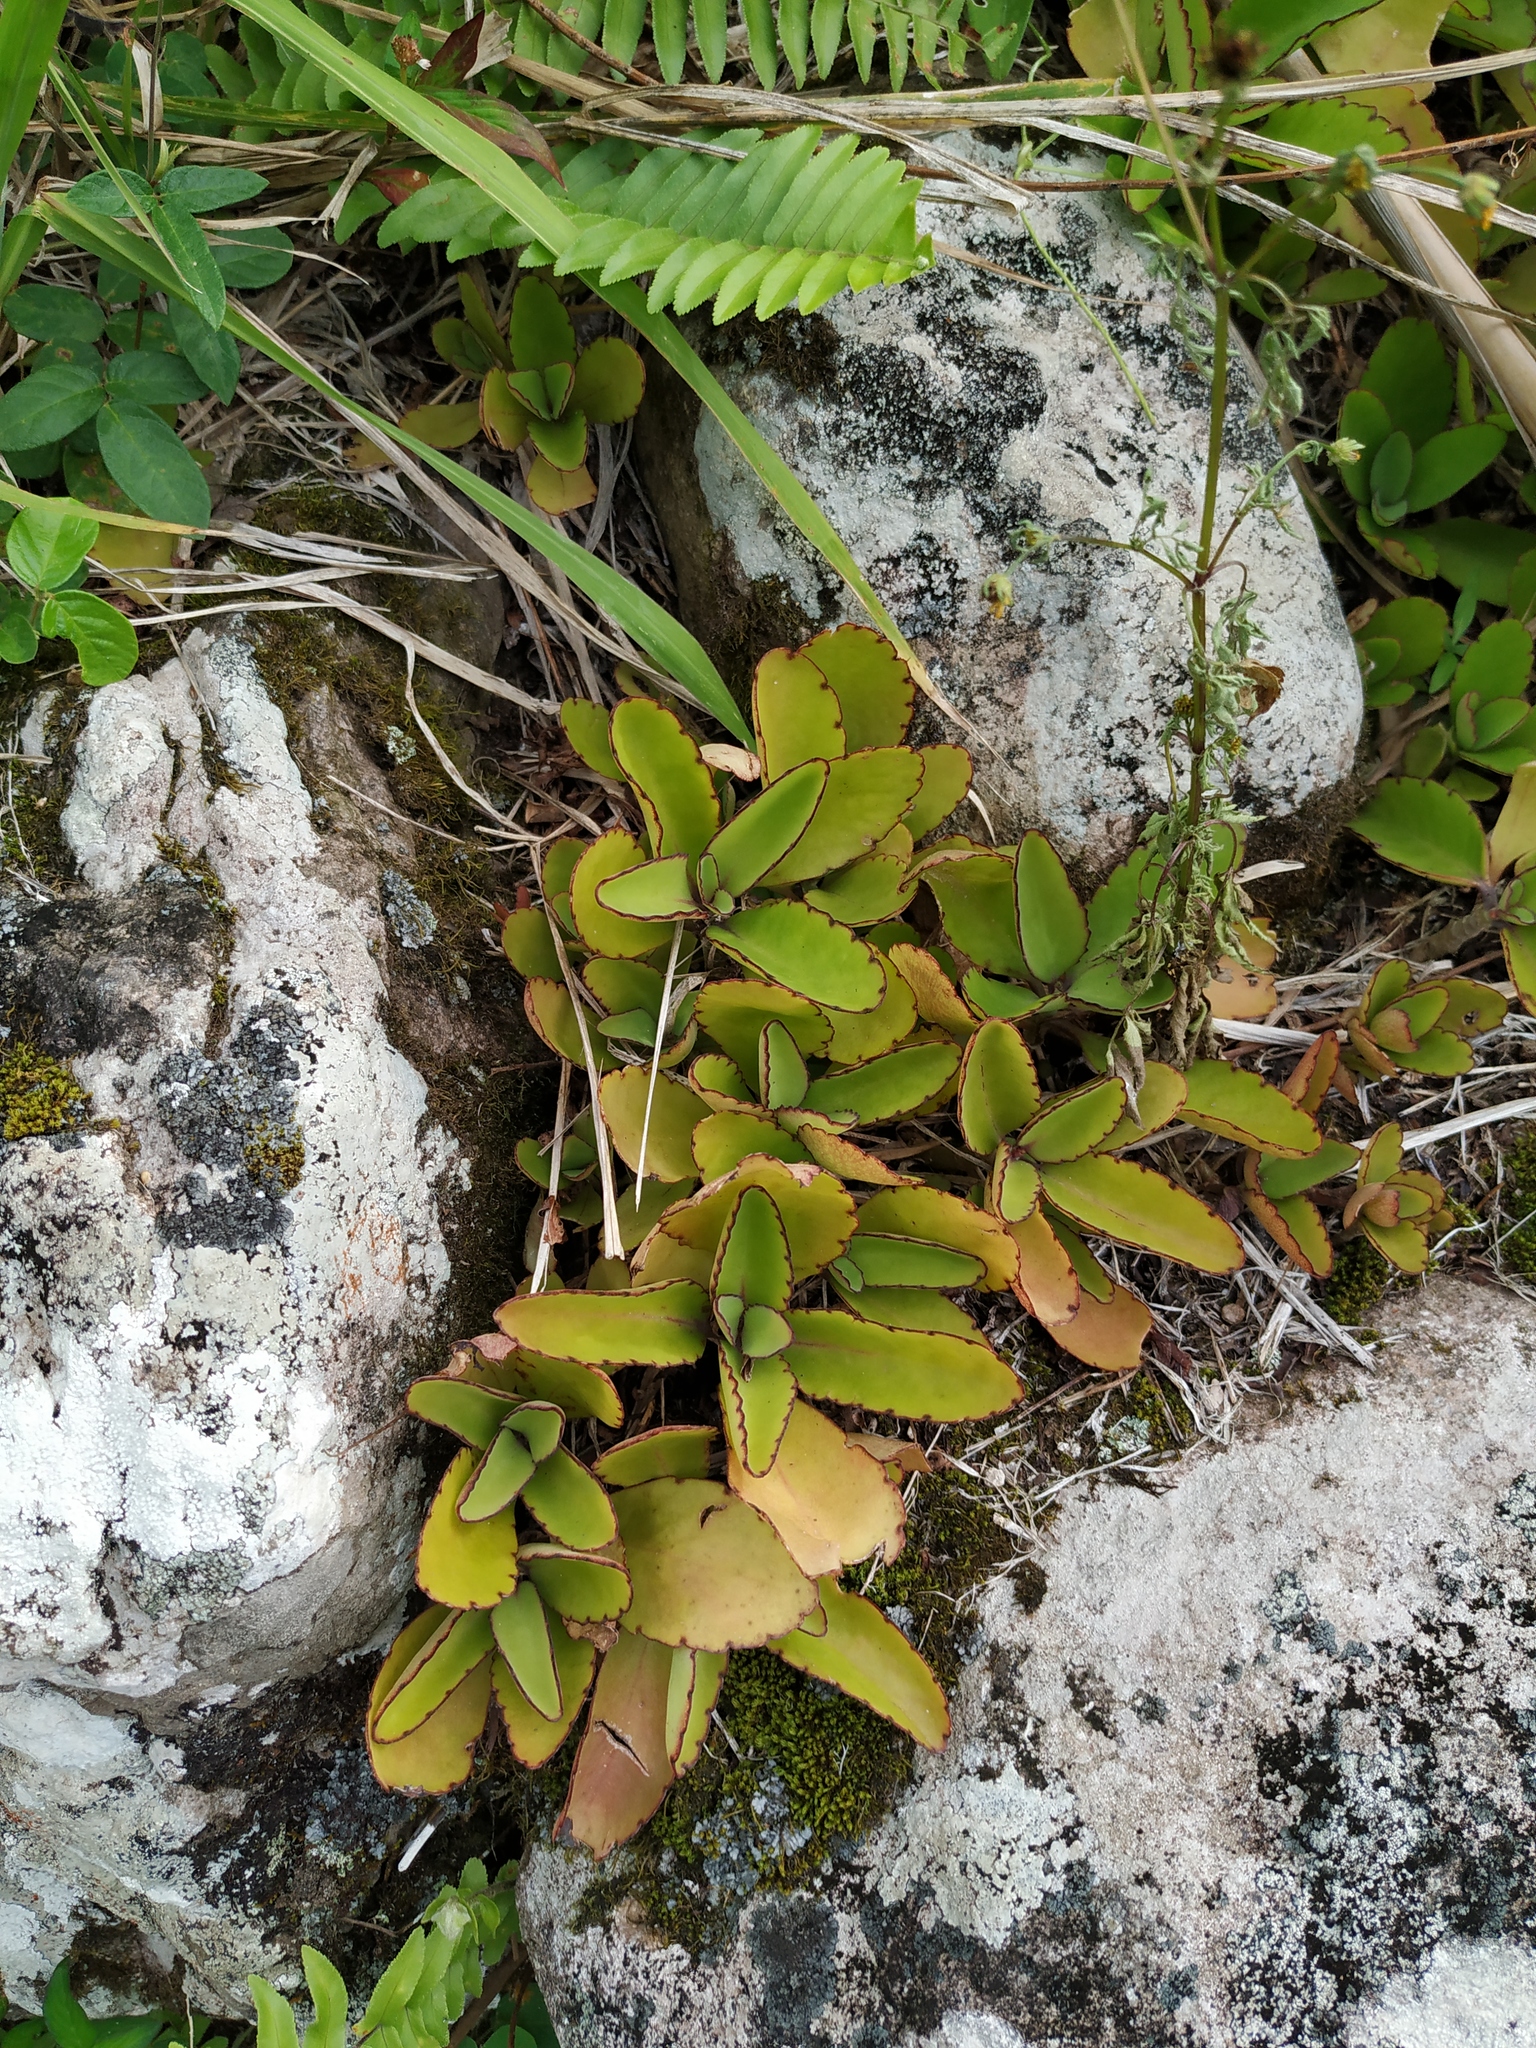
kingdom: Plantae
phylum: Tracheophyta
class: Magnoliopsida
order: Saxifragales
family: Crassulaceae
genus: Kalanchoe
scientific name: Kalanchoe pinnata
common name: Cathedral bells
